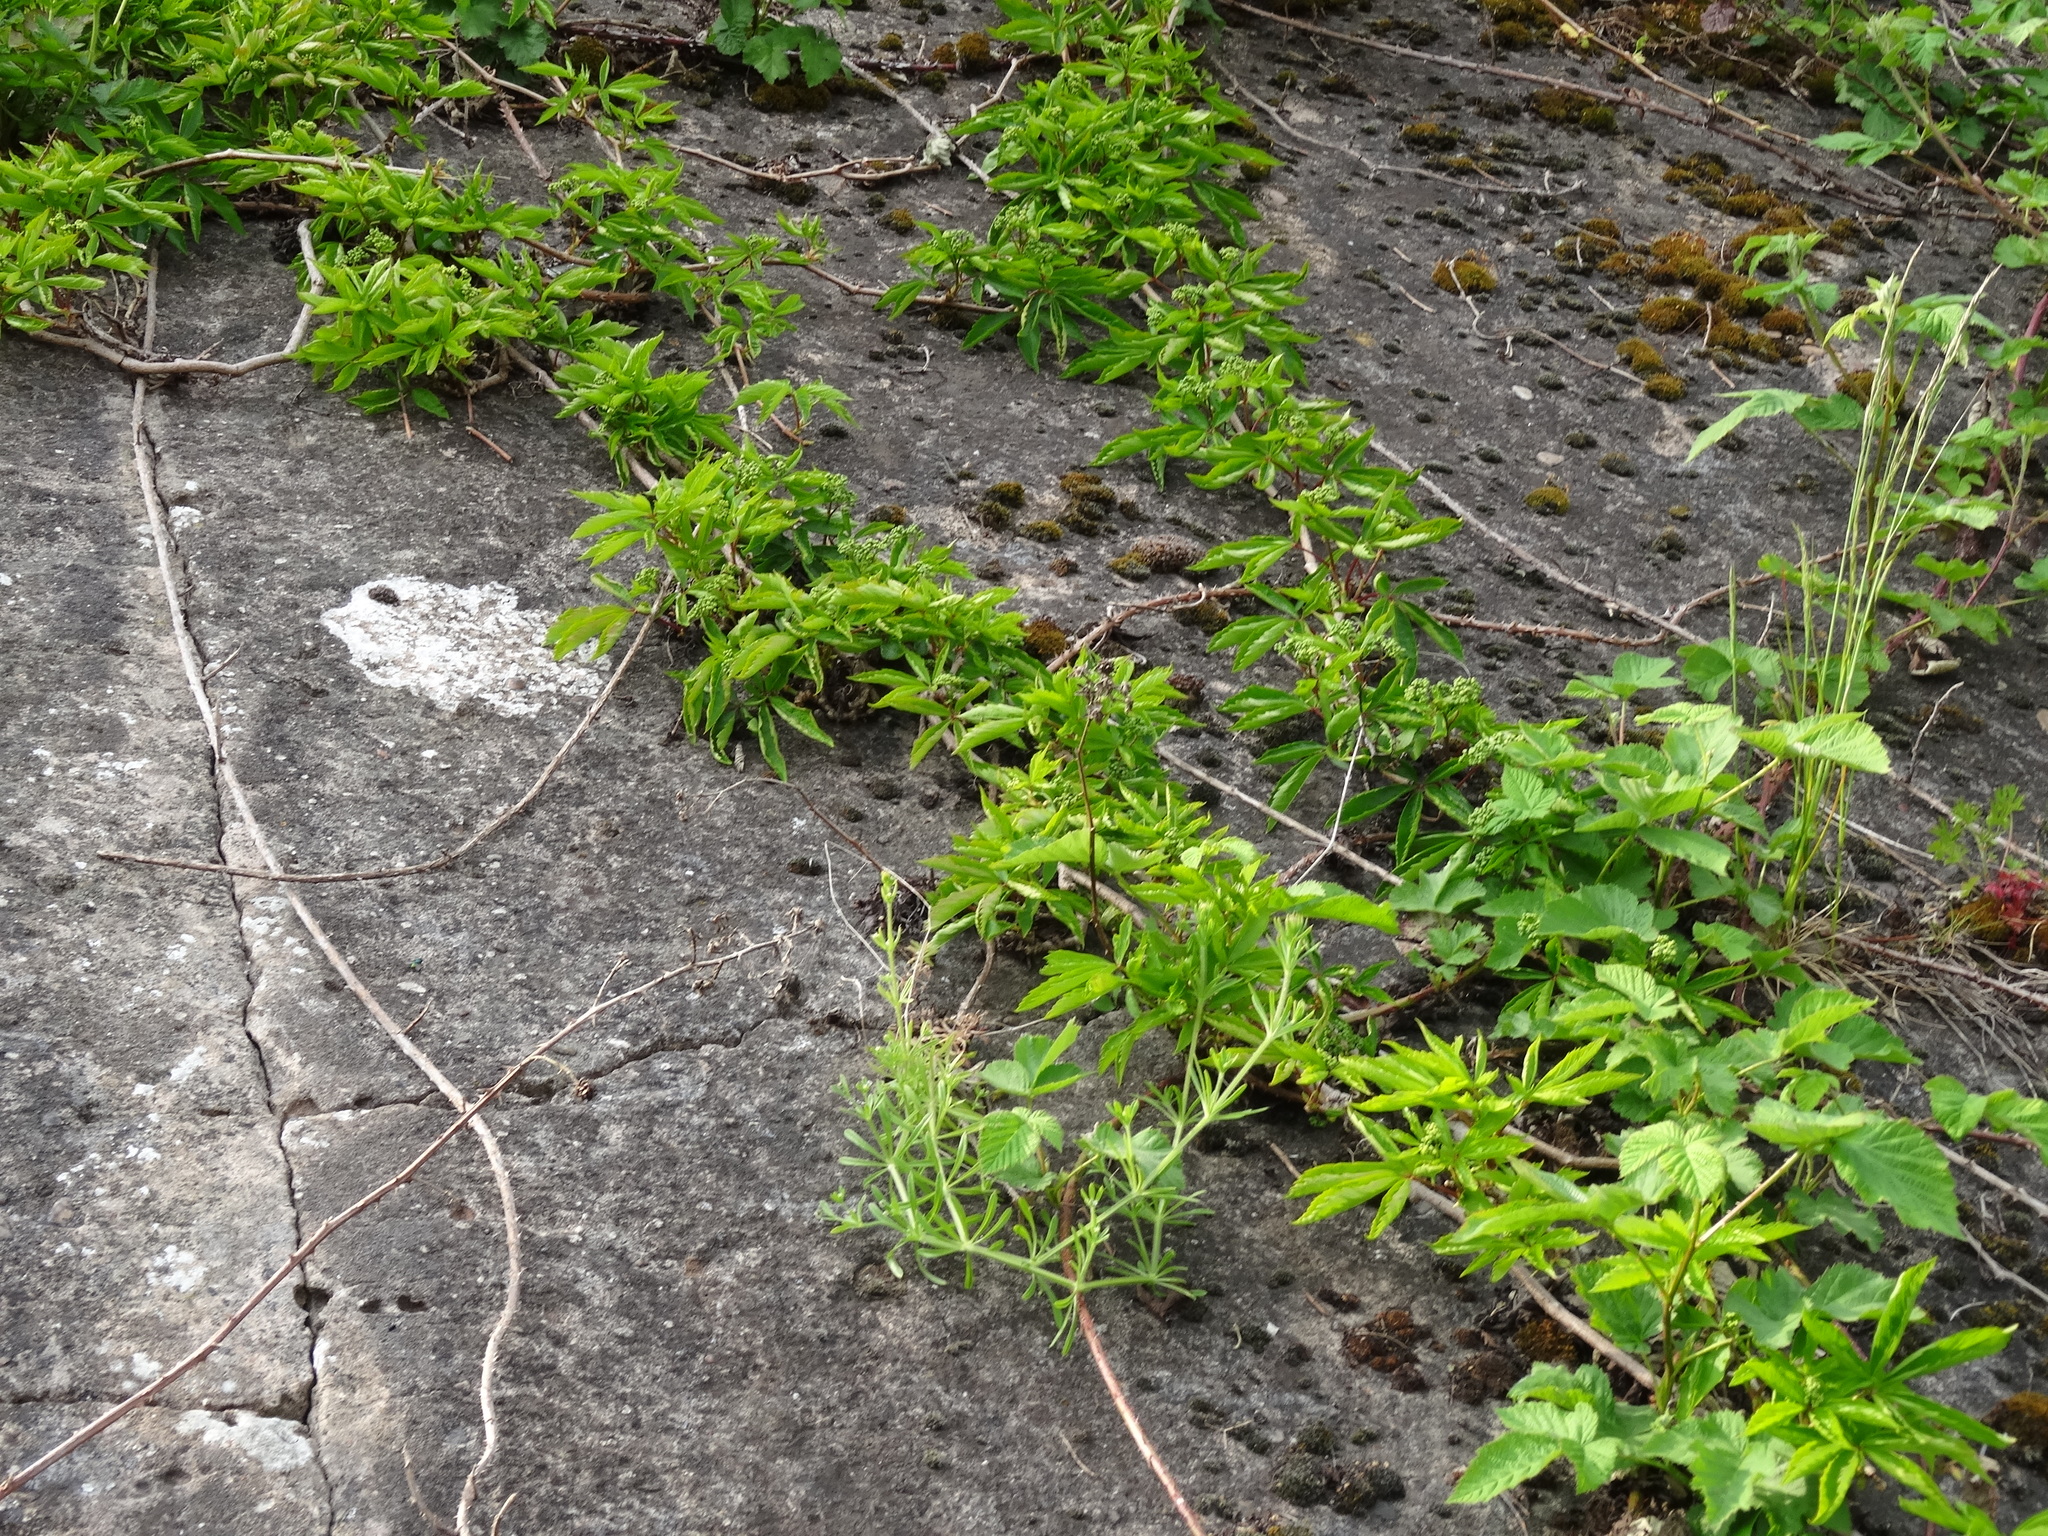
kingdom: Plantae
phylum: Tracheophyta
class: Magnoliopsida
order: Vitales
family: Vitaceae
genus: Parthenocissus
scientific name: Parthenocissus quinquefolia
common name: Virginia-creeper
